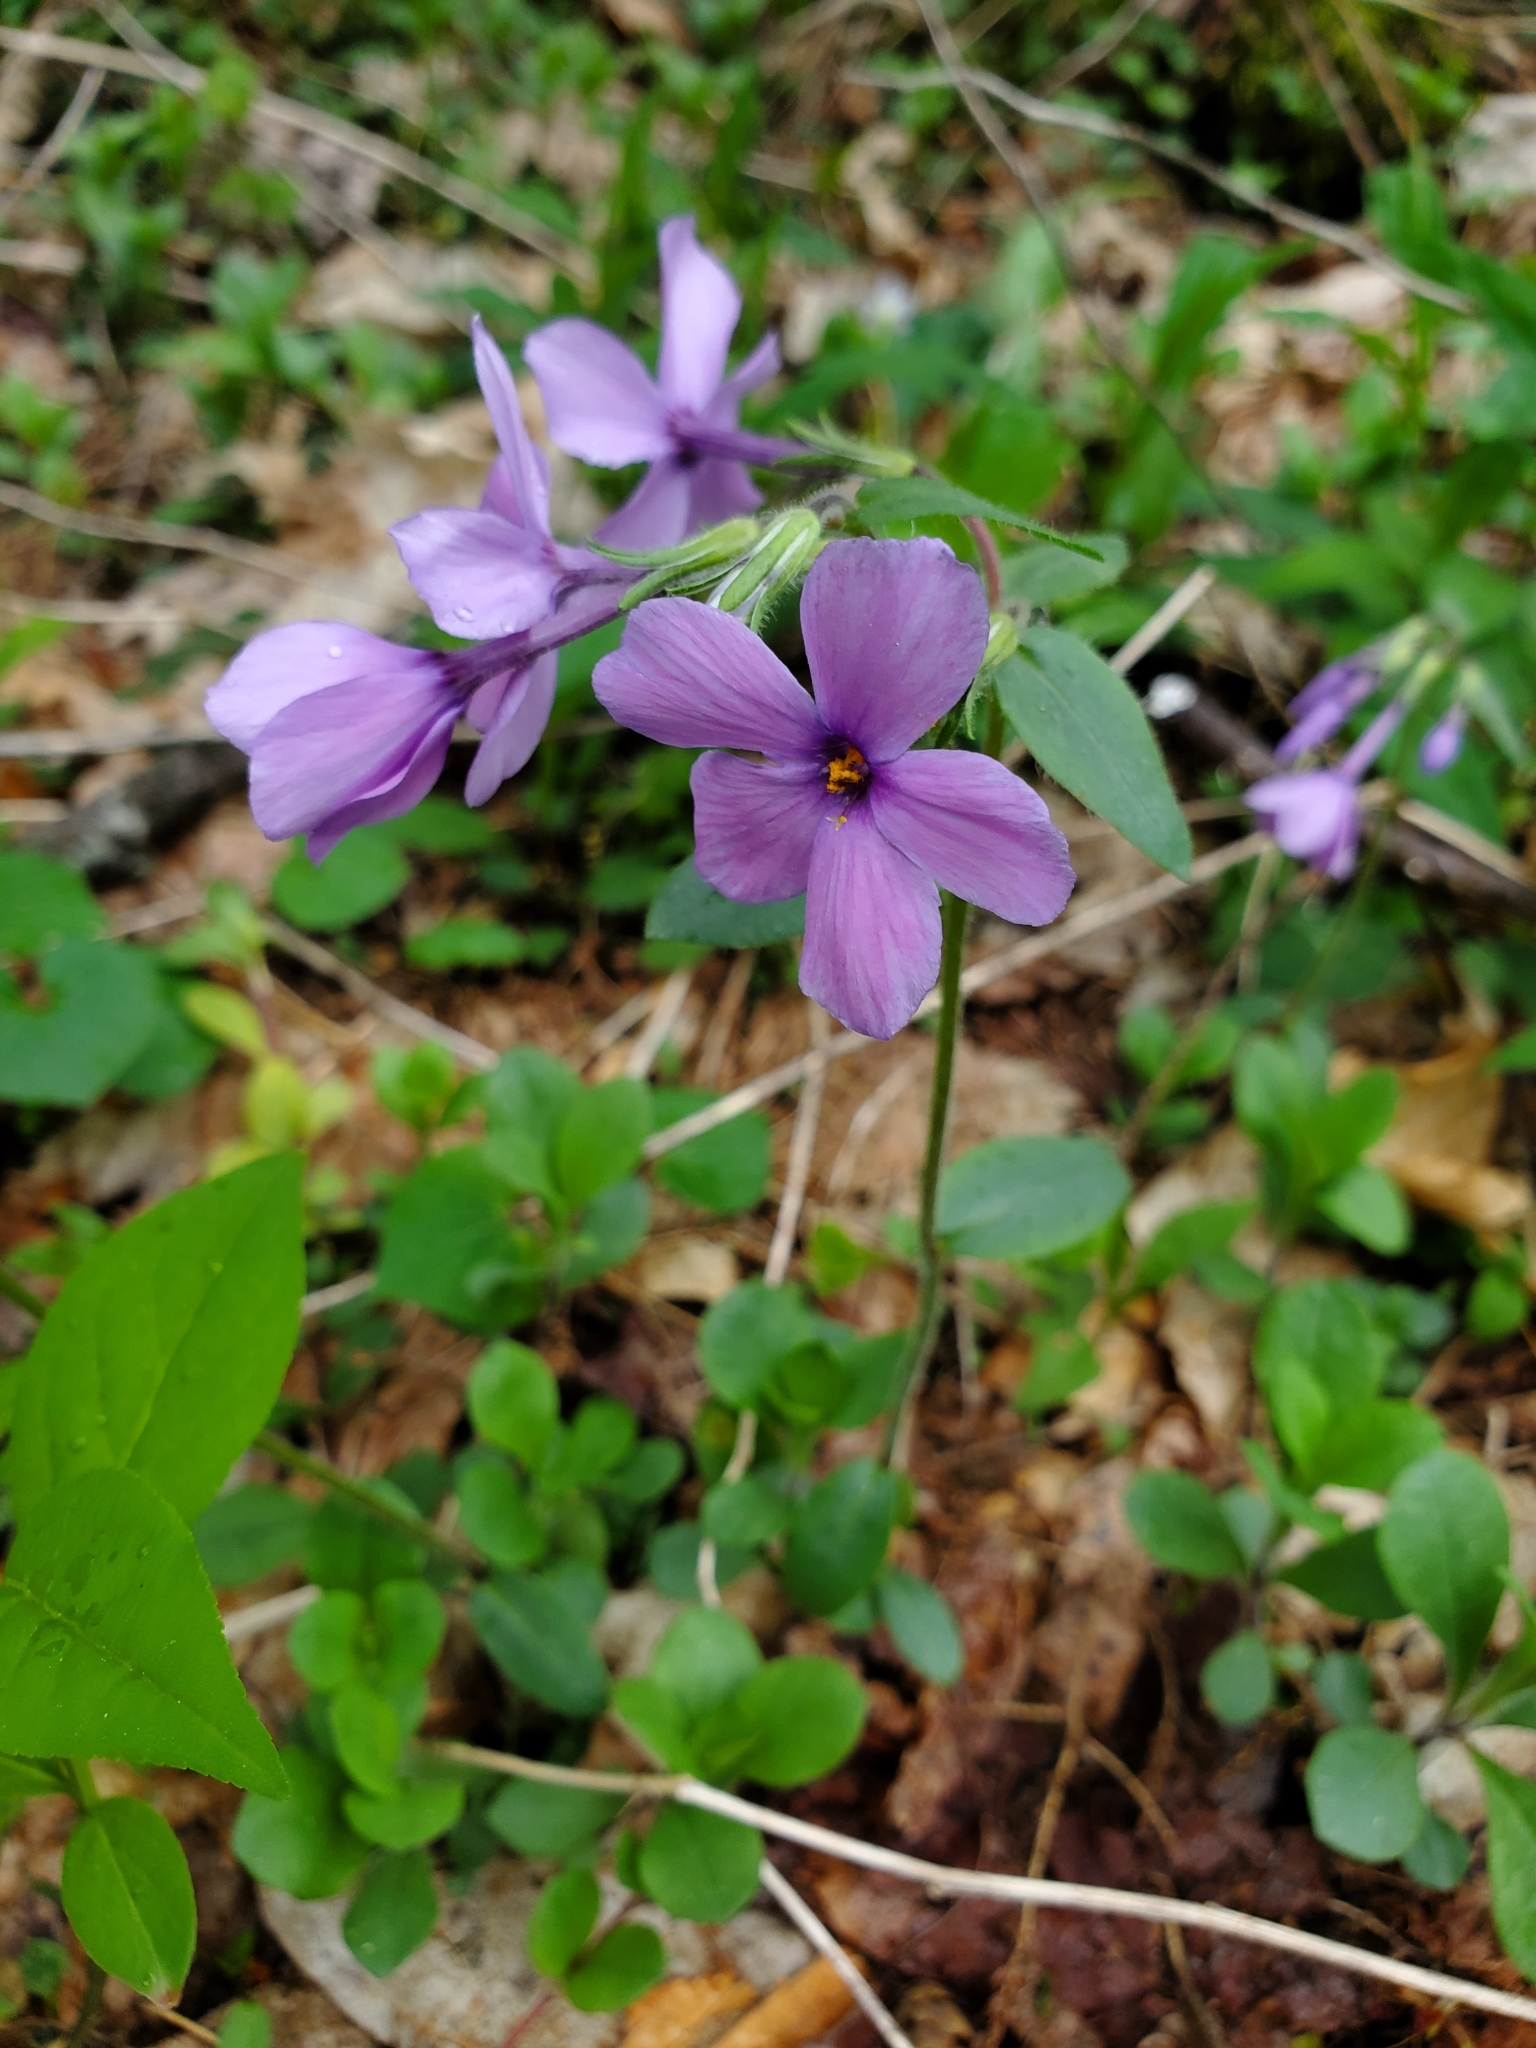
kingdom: Plantae
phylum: Tracheophyta
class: Magnoliopsida
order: Ericales
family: Polemoniaceae
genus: Phlox
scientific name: Phlox stolonifera
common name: Creeping phlox
